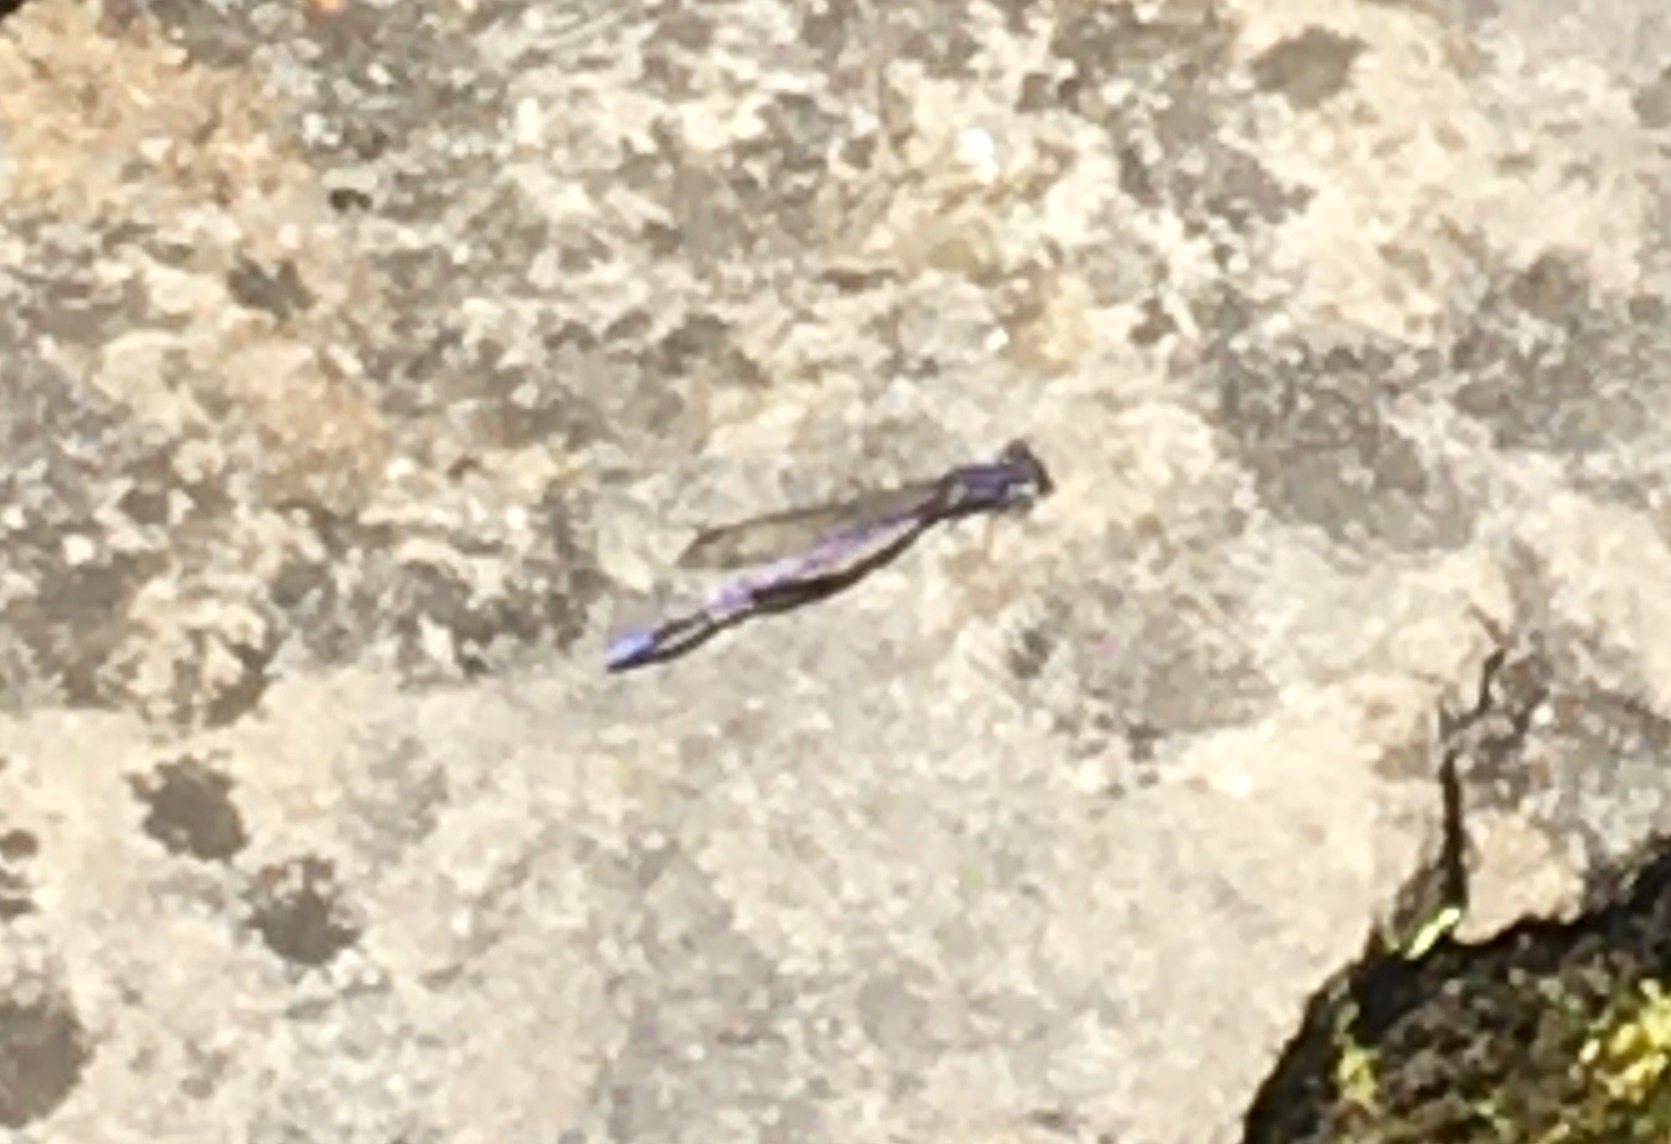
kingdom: Animalia
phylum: Arthropoda
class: Insecta
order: Odonata
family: Coenagrionidae
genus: Argia
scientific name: Argia fumipennis
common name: Variable dancer
